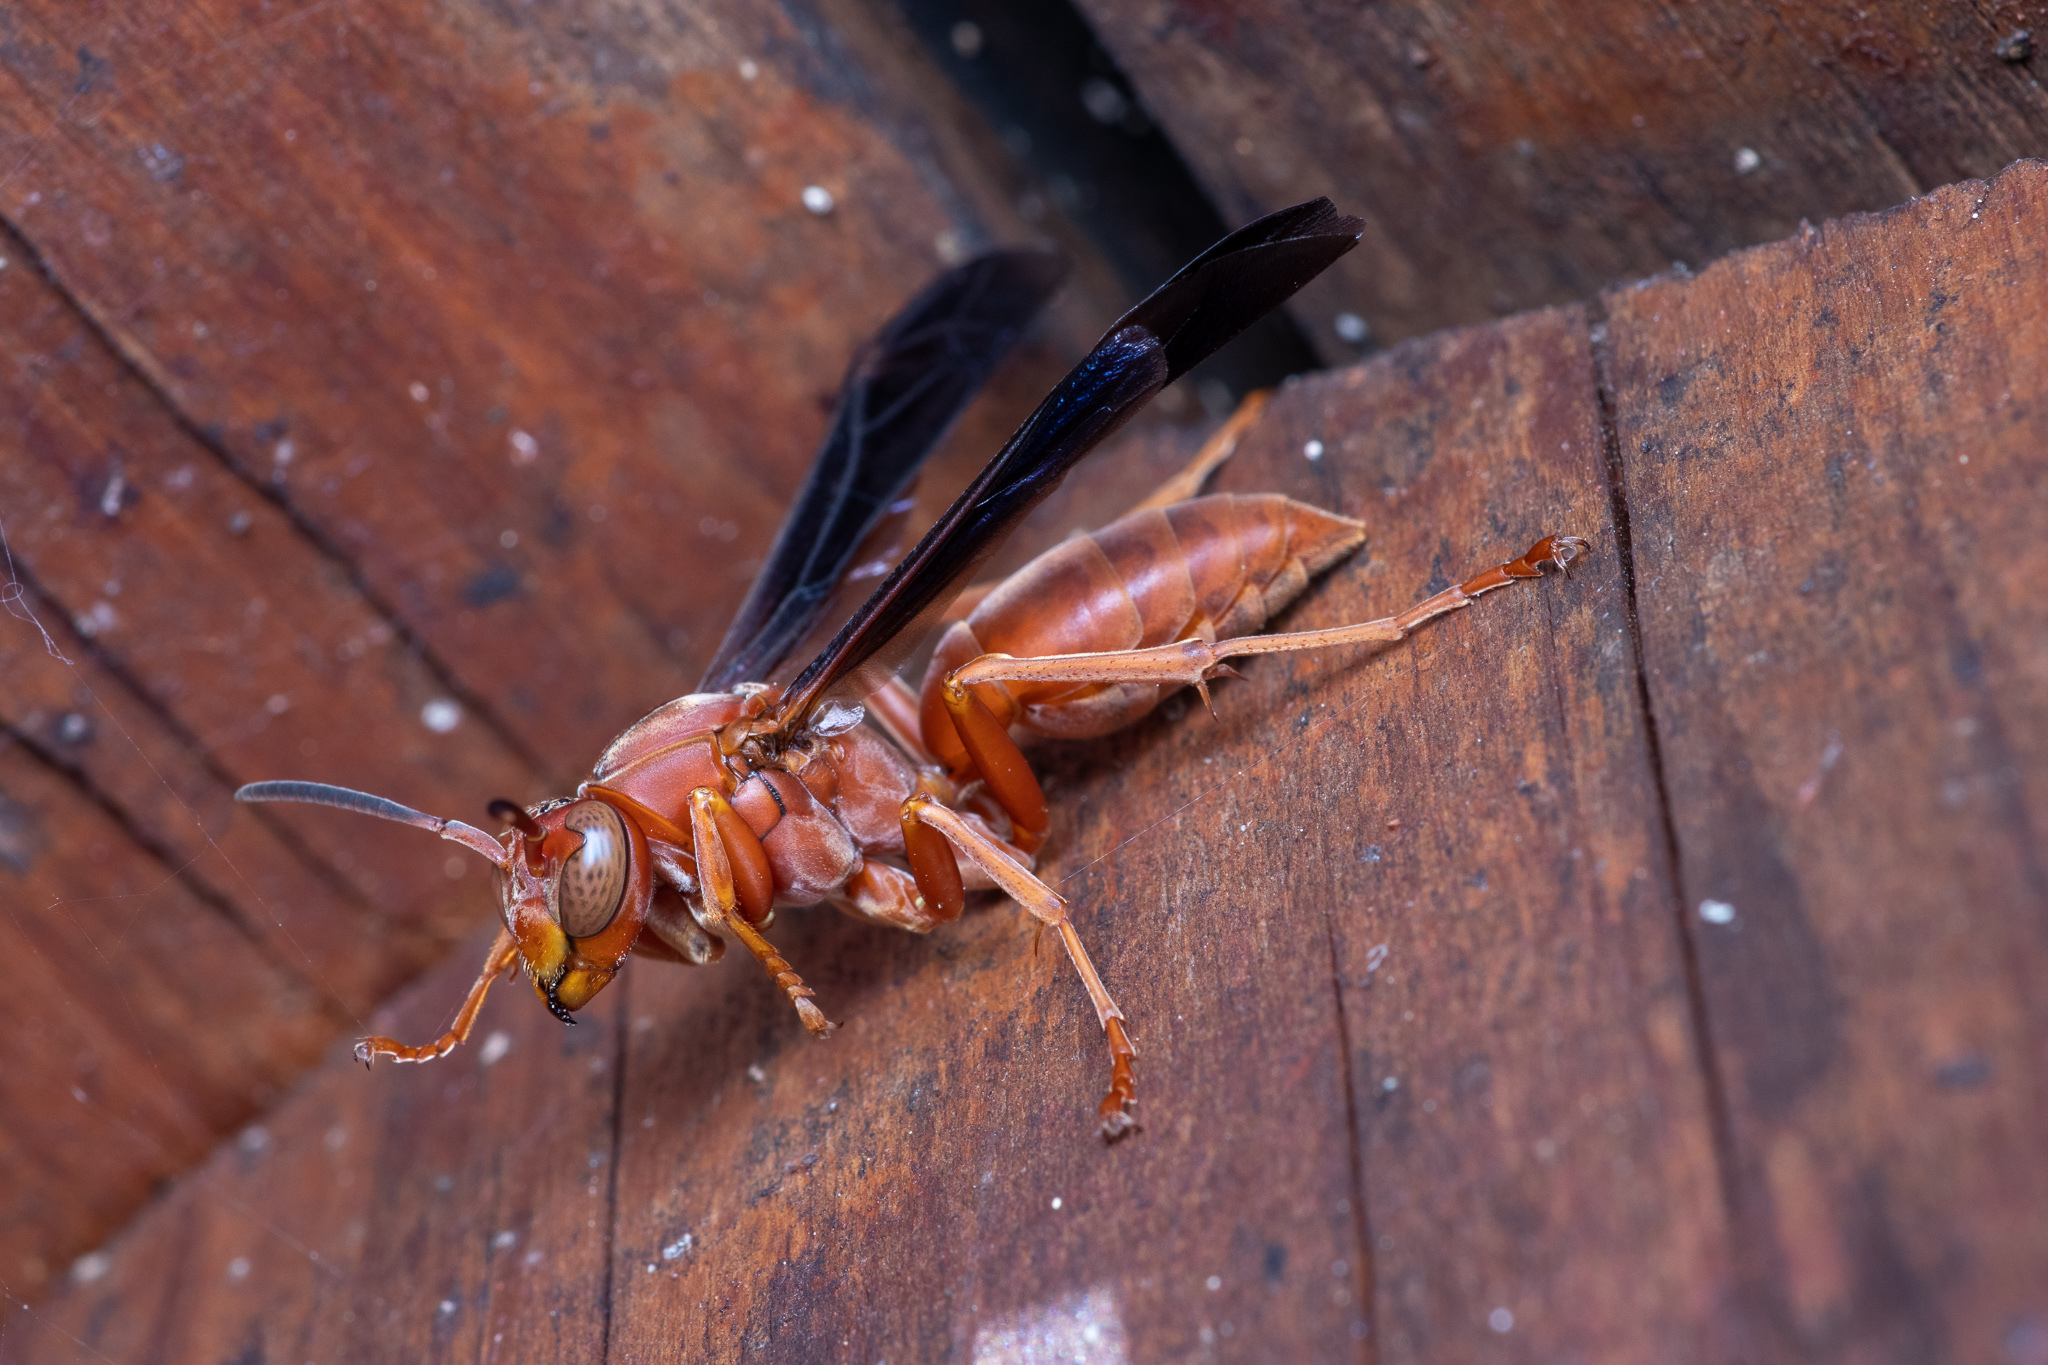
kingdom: Animalia
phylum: Arthropoda
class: Insecta
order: Hymenoptera
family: Eumenidae
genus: Polistes
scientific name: Polistes carolina
